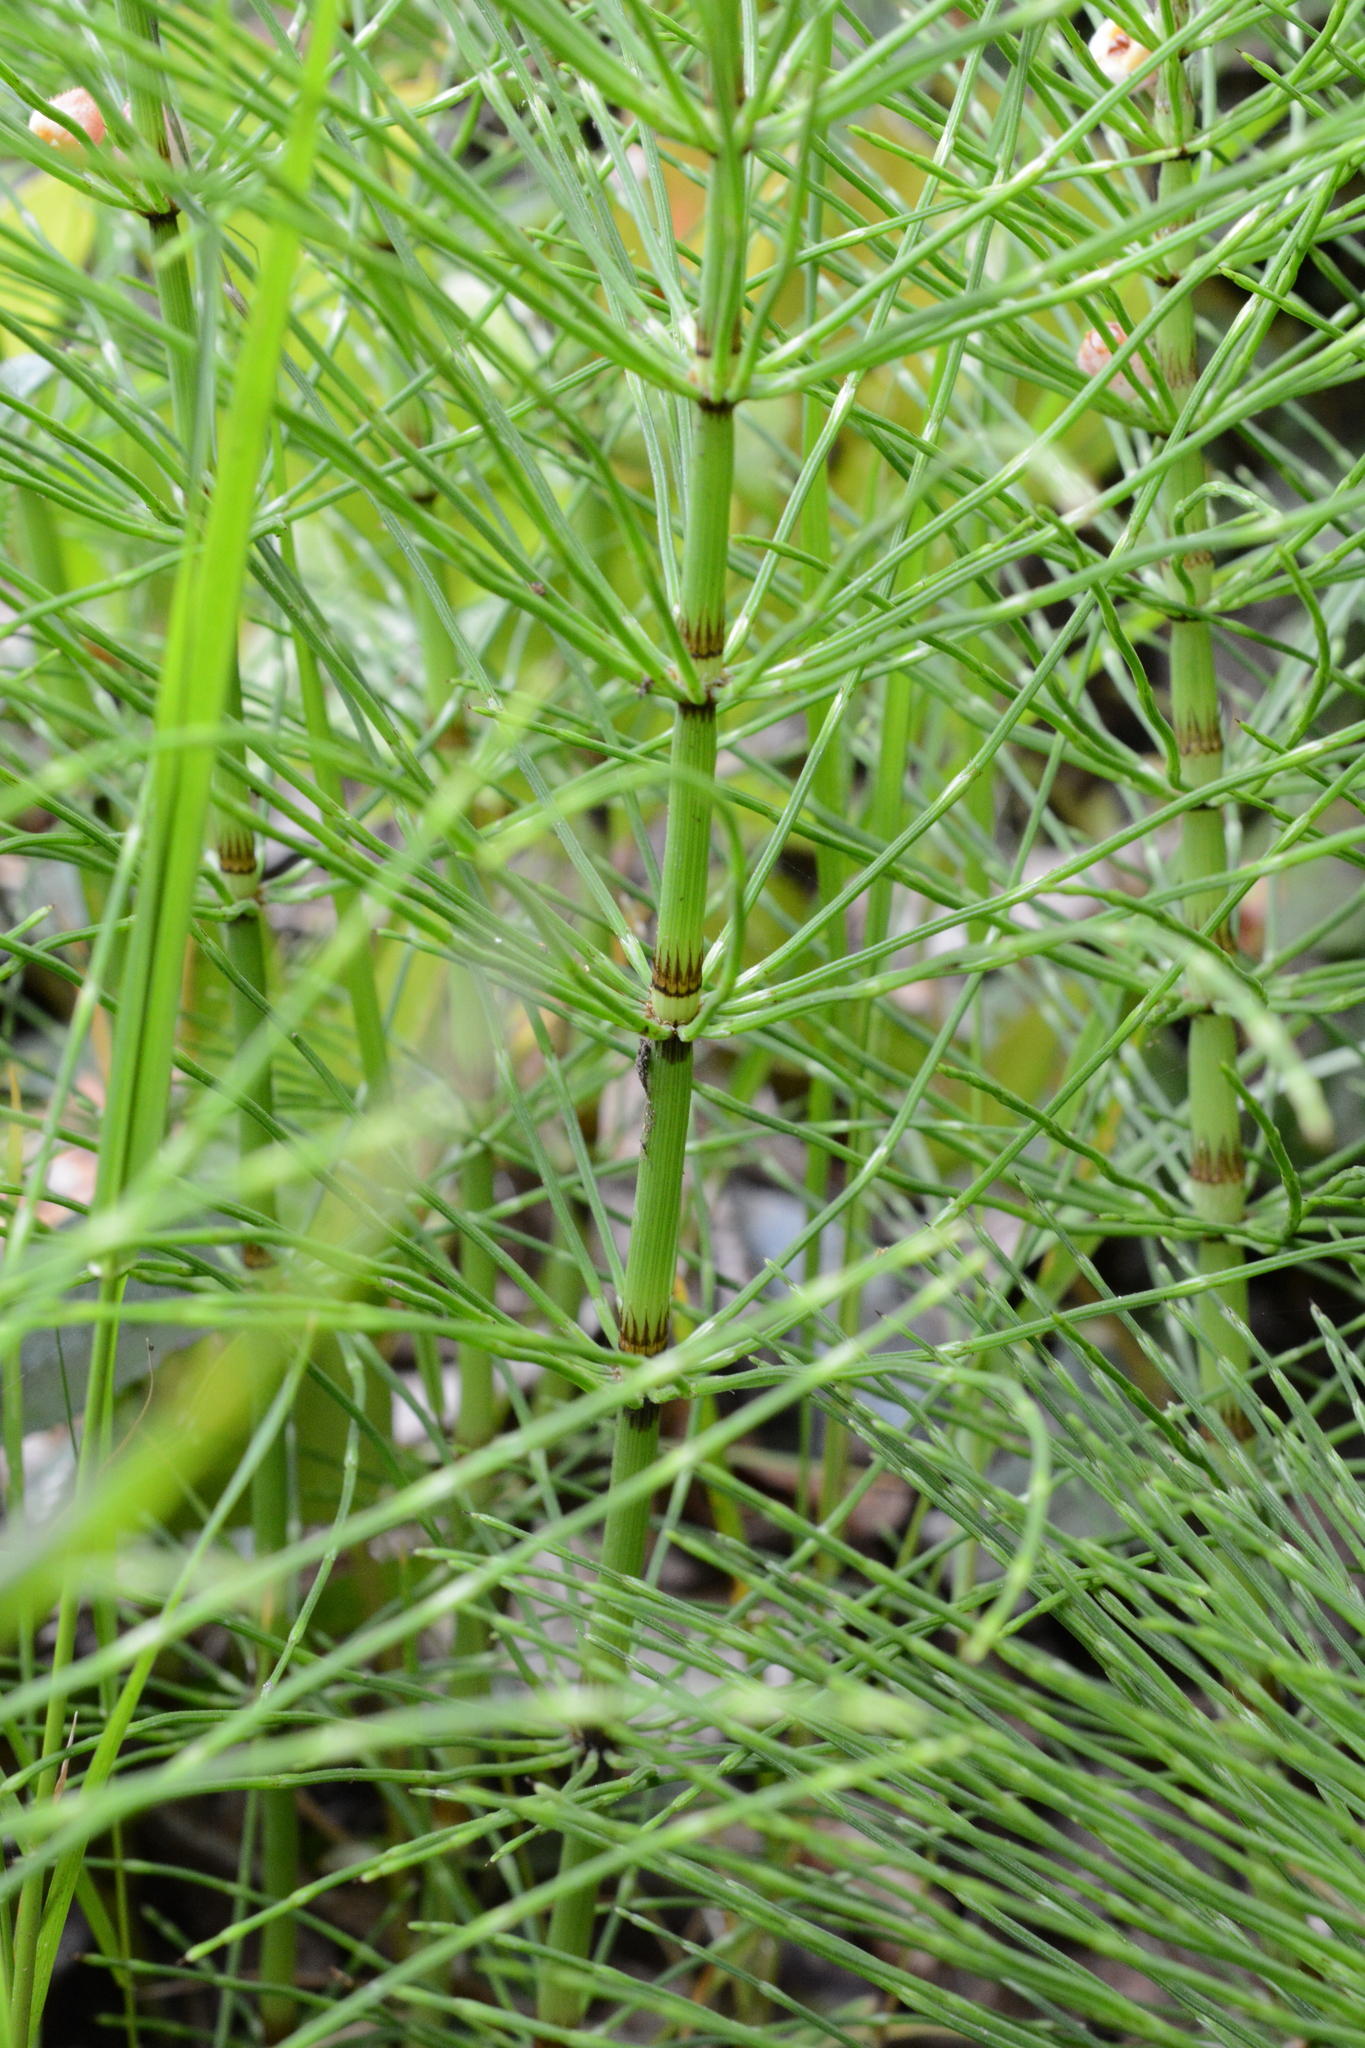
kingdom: Plantae
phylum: Tracheophyta
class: Polypodiopsida
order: Equisetales
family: Equisetaceae
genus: Equisetum
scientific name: Equisetum telmateia
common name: Great horsetail
